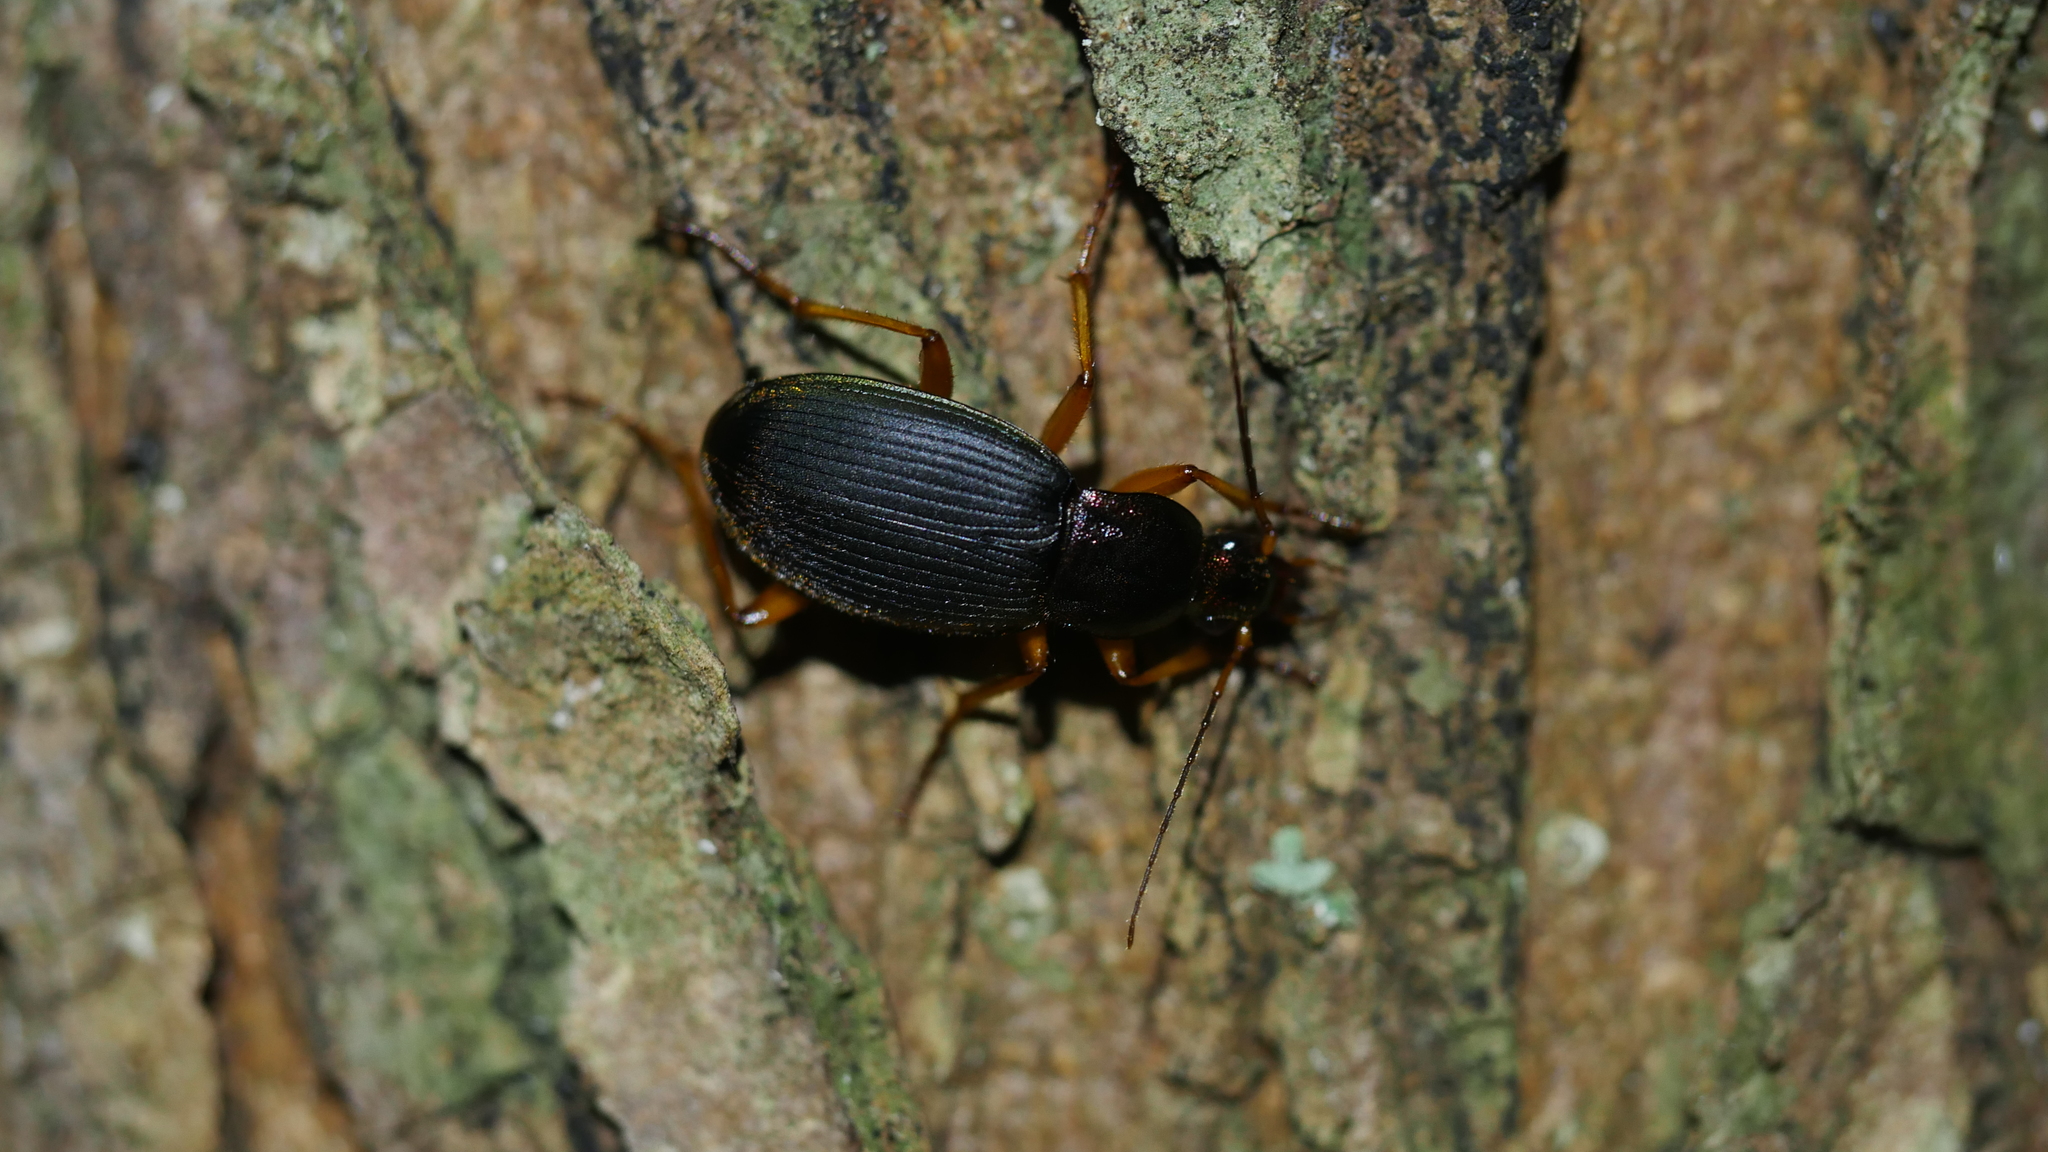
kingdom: Animalia
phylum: Arthropoda
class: Insecta
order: Coleoptera
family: Carabidae
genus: Chlaenius
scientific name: Chlaenius
